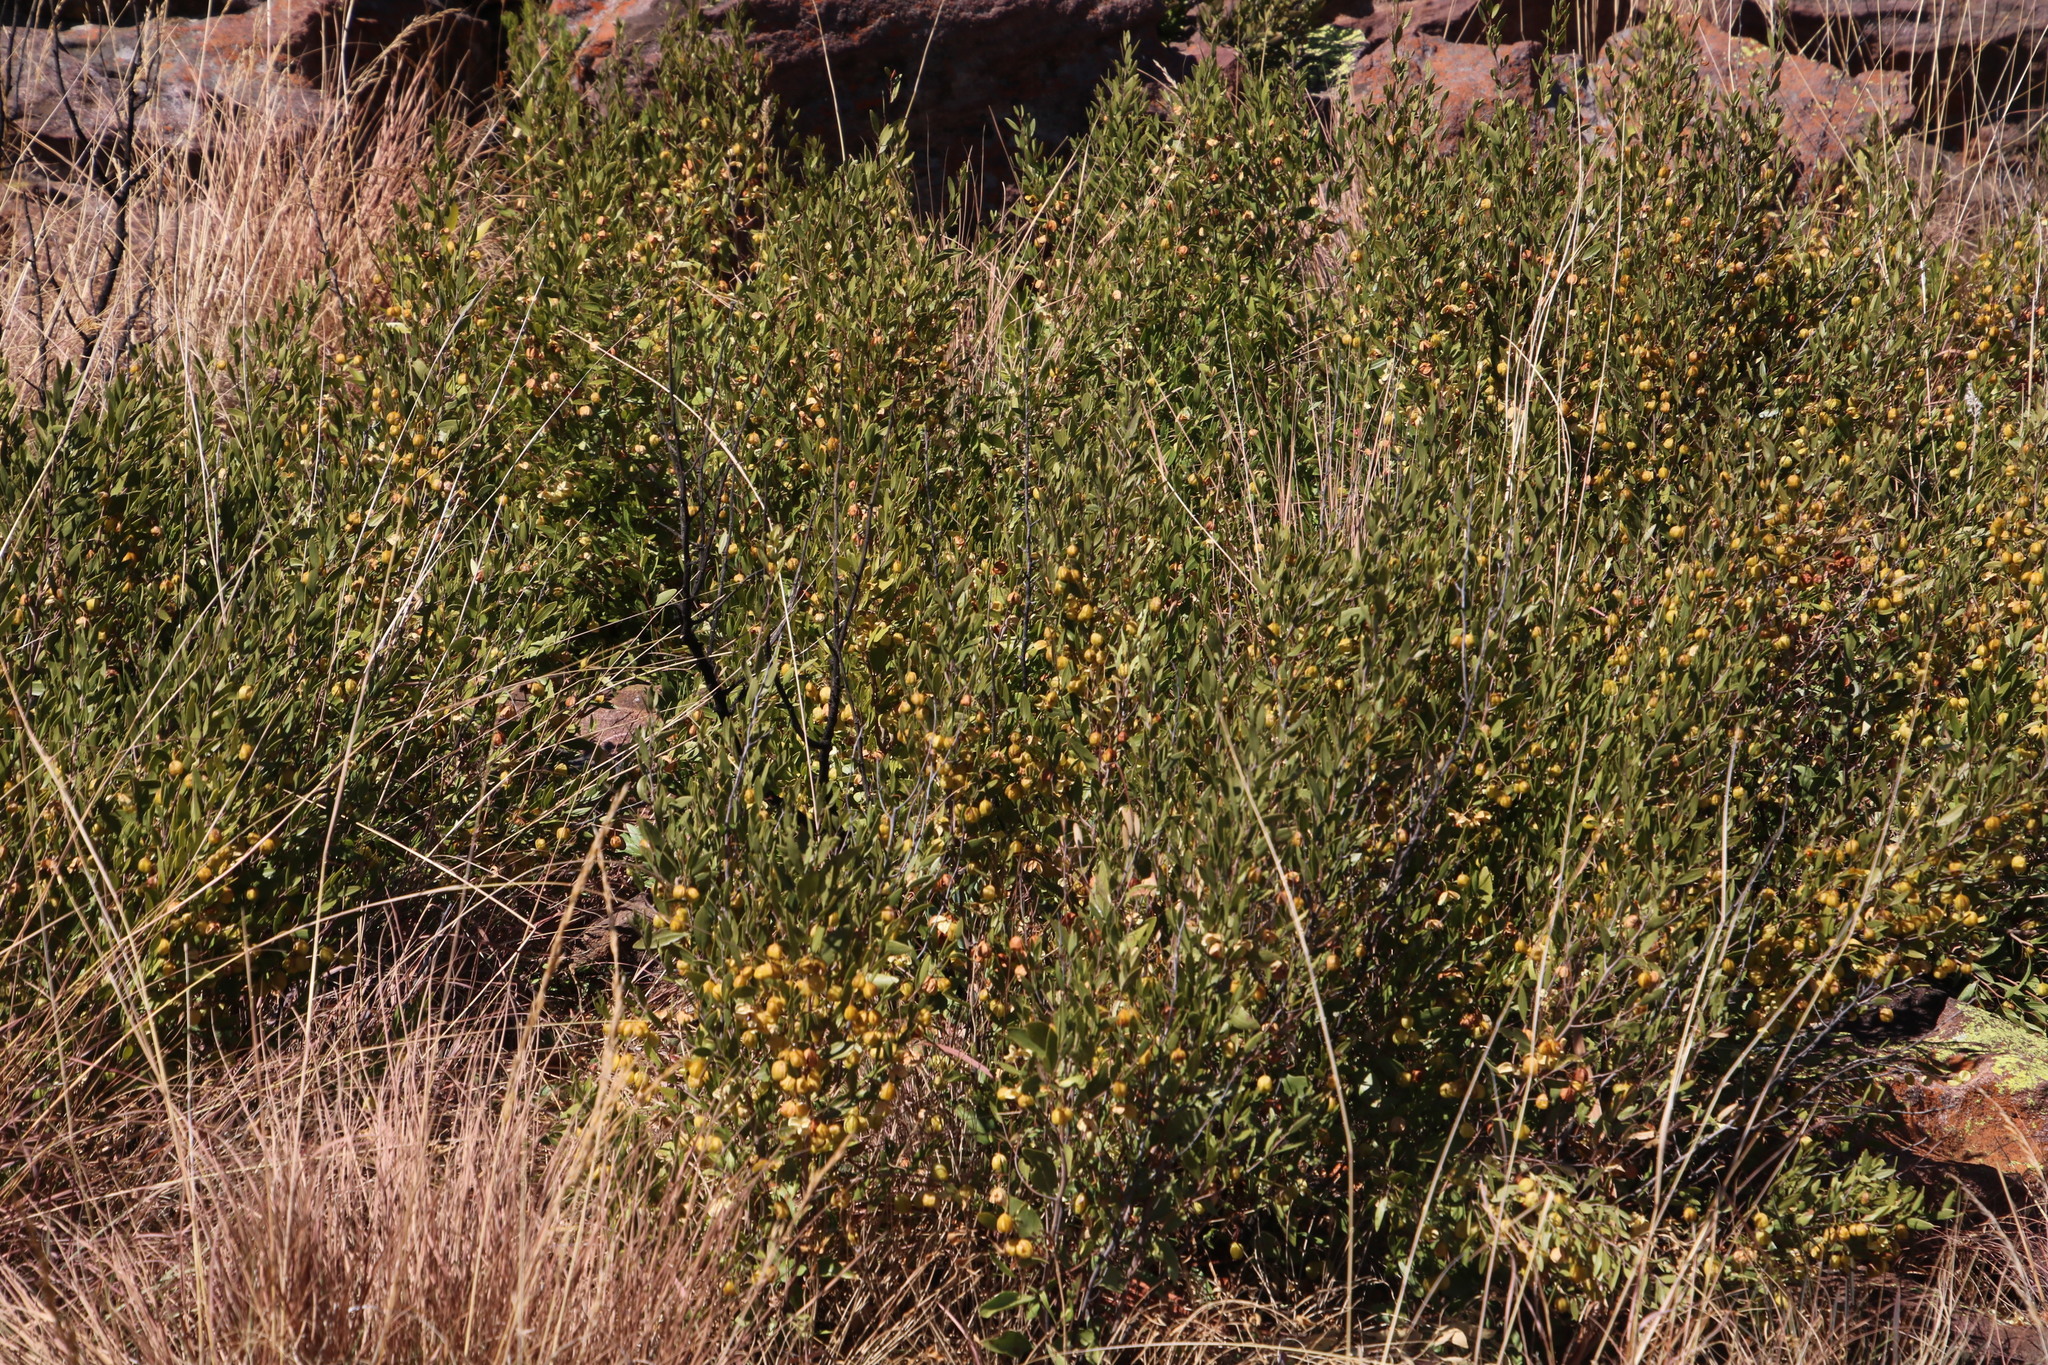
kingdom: Plantae
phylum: Tracheophyta
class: Magnoliopsida
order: Celastrales
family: Celastraceae
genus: Gymnosporia
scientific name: Gymnosporia tenuispina
